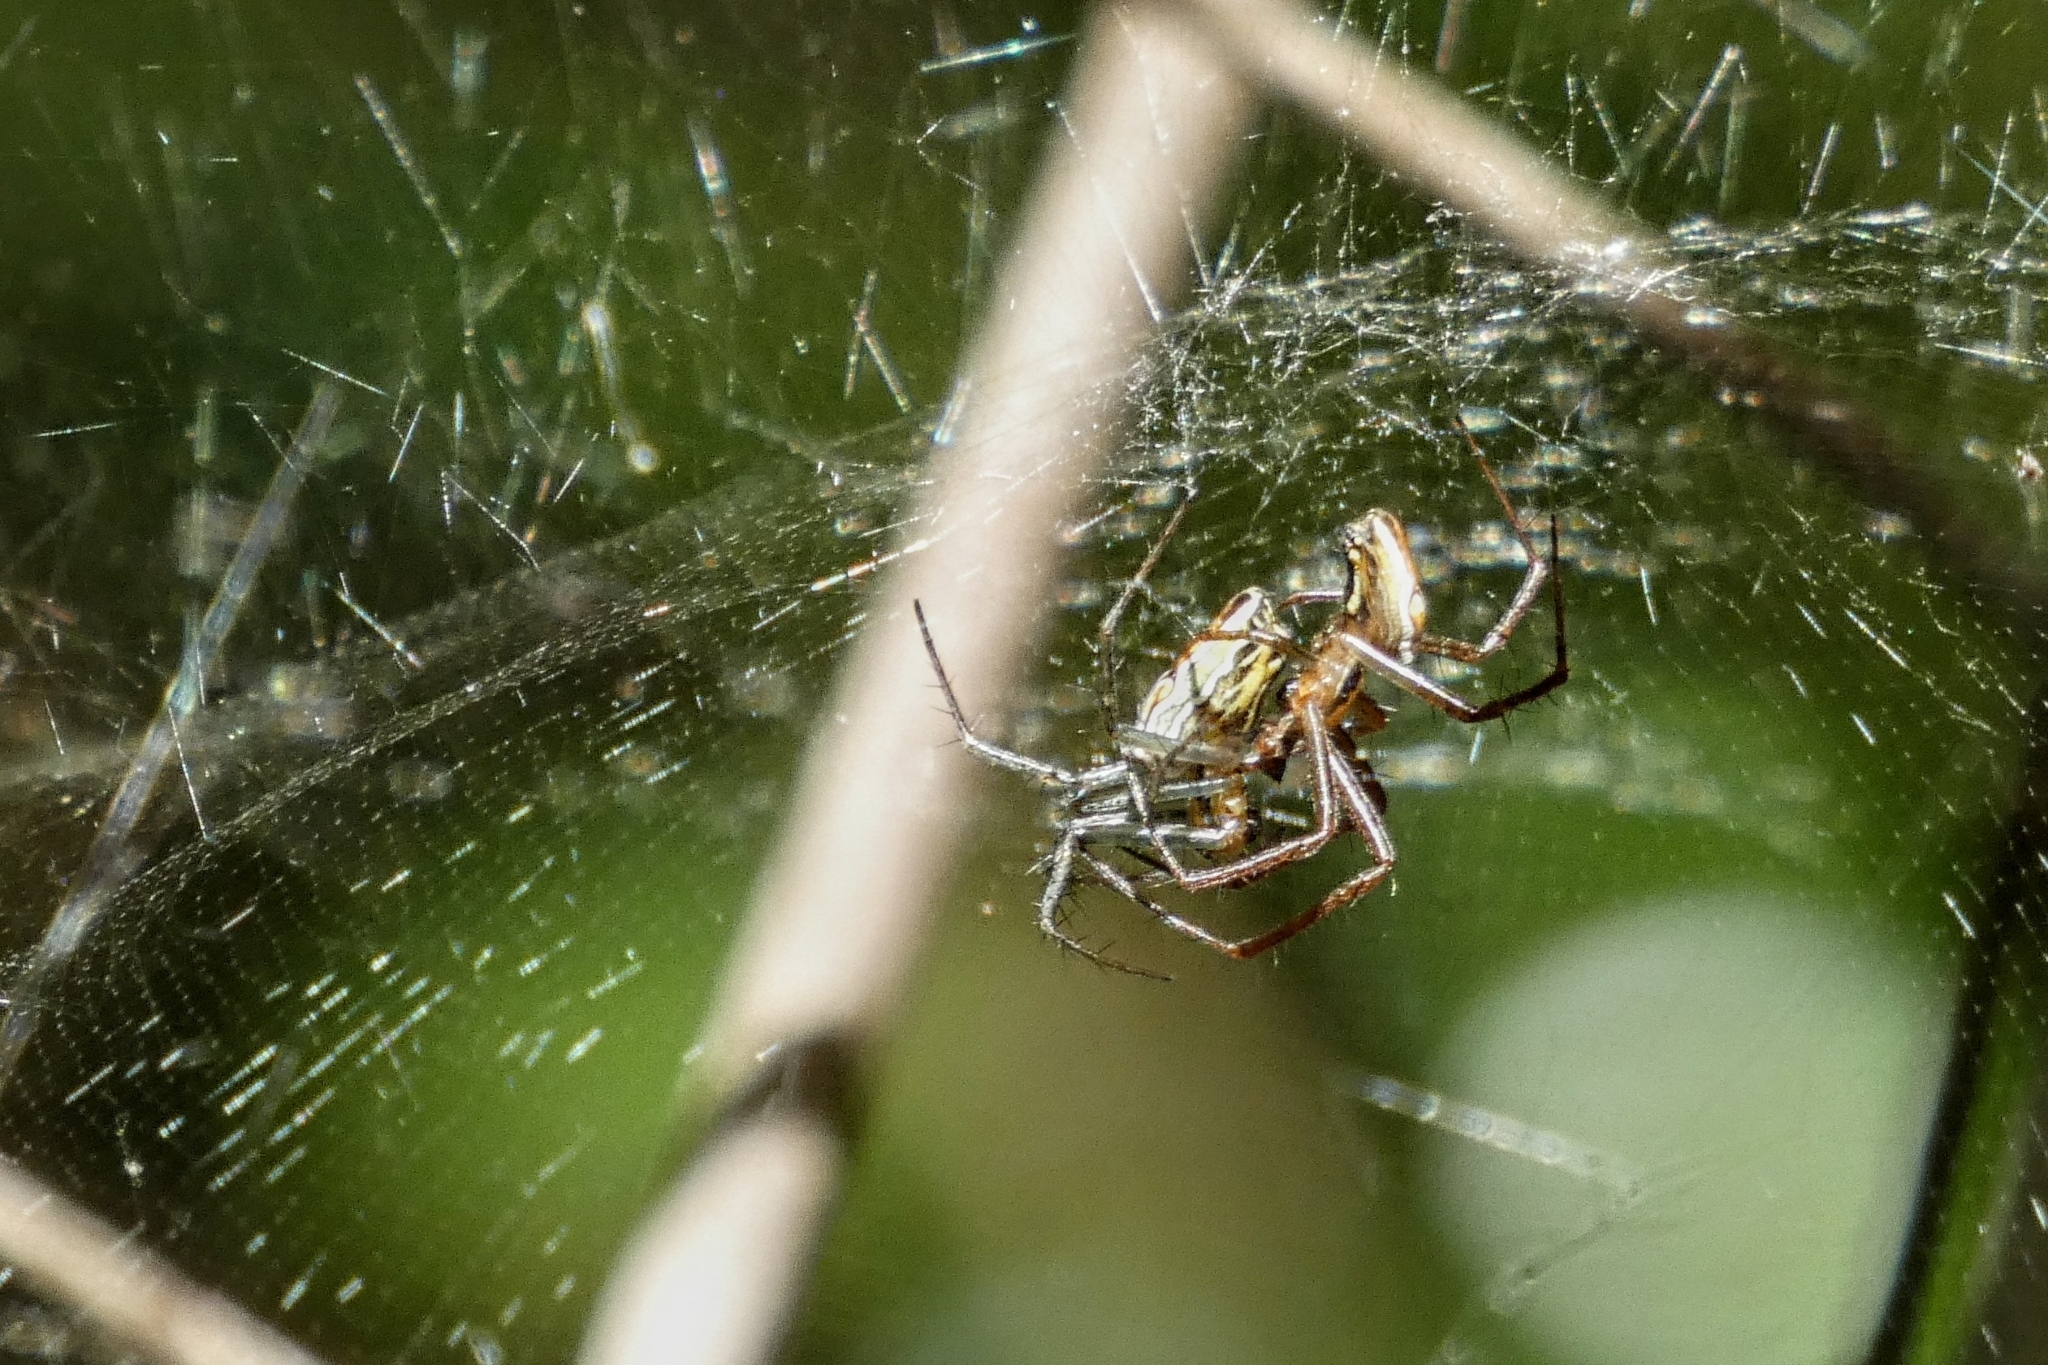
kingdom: Animalia
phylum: Arthropoda
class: Arachnida
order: Araneae
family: Araneidae
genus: Mecynogea
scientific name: Mecynogea lemniscata
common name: Orb weavers
